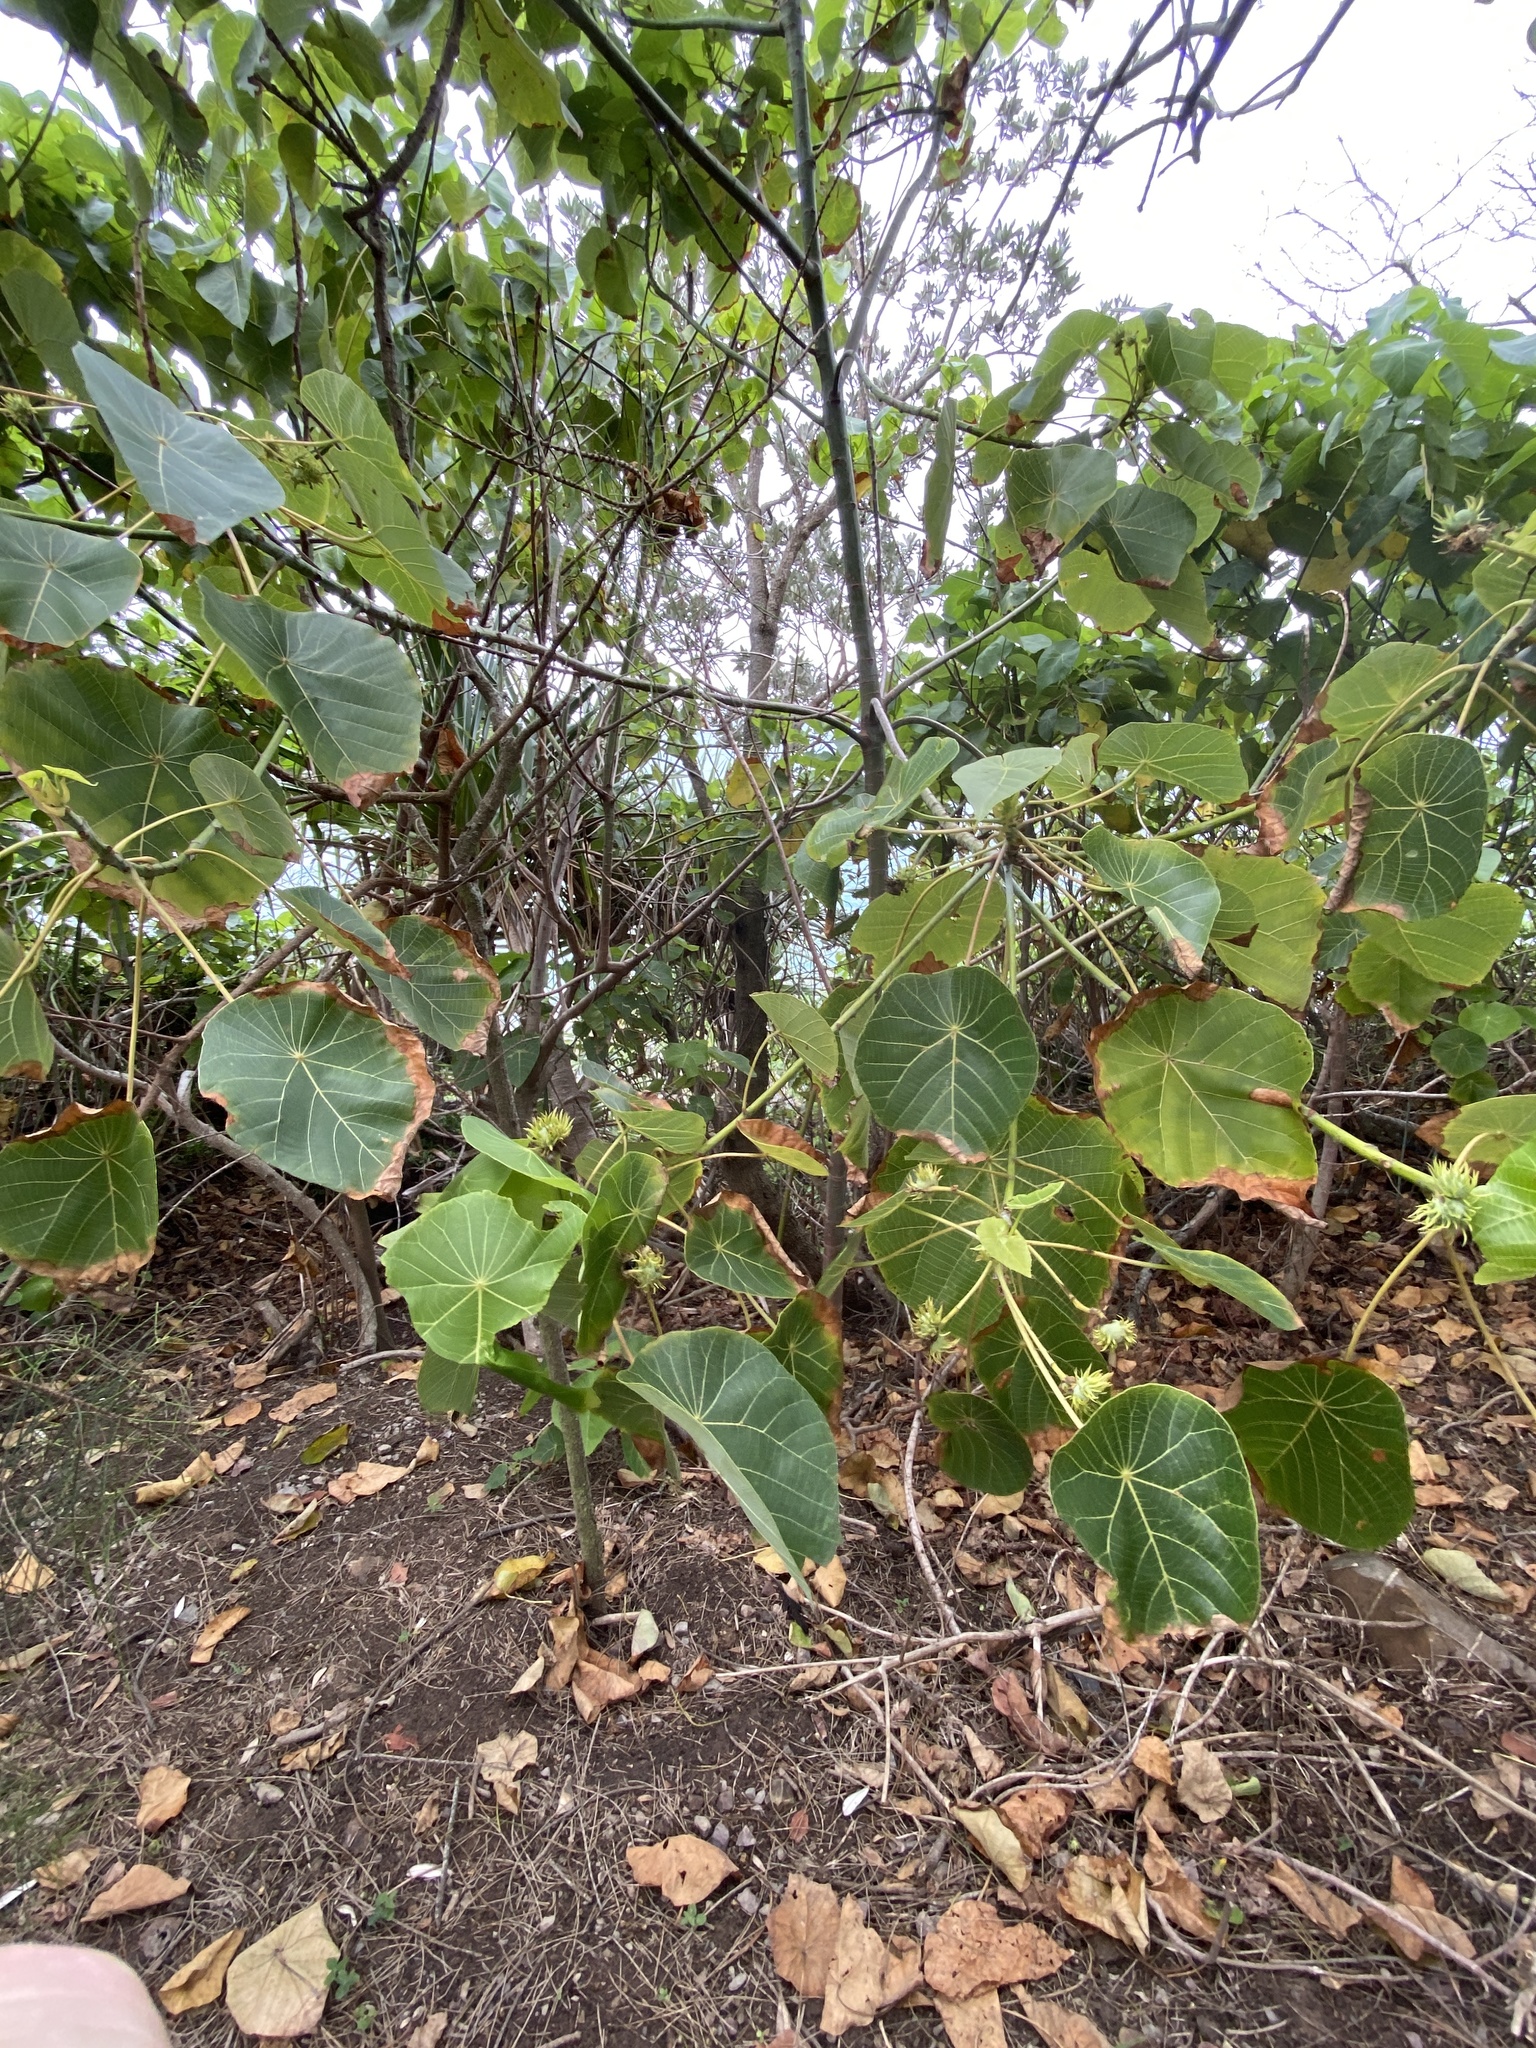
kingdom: Plantae
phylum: Tracheophyta
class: Magnoliopsida
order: Malpighiales
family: Euphorbiaceae
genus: Macaranga
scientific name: Macaranga tanarius
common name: Parasol leaf tree
